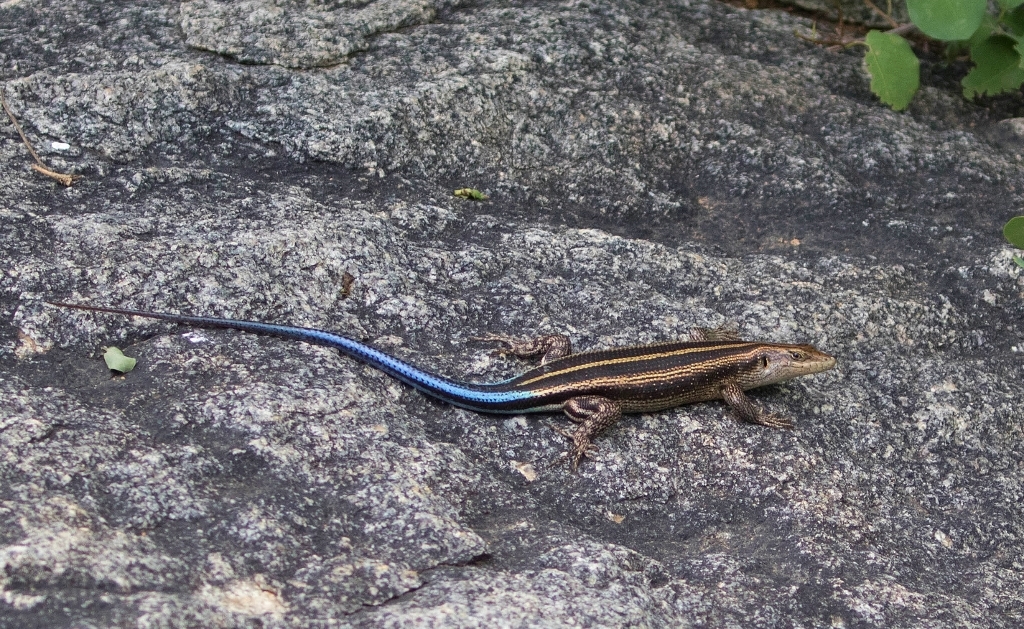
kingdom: Animalia
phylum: Chordata
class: Squamata
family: Scincidae
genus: Trachylepis
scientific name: Trachylepis margaritifera
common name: Rainbow skink
